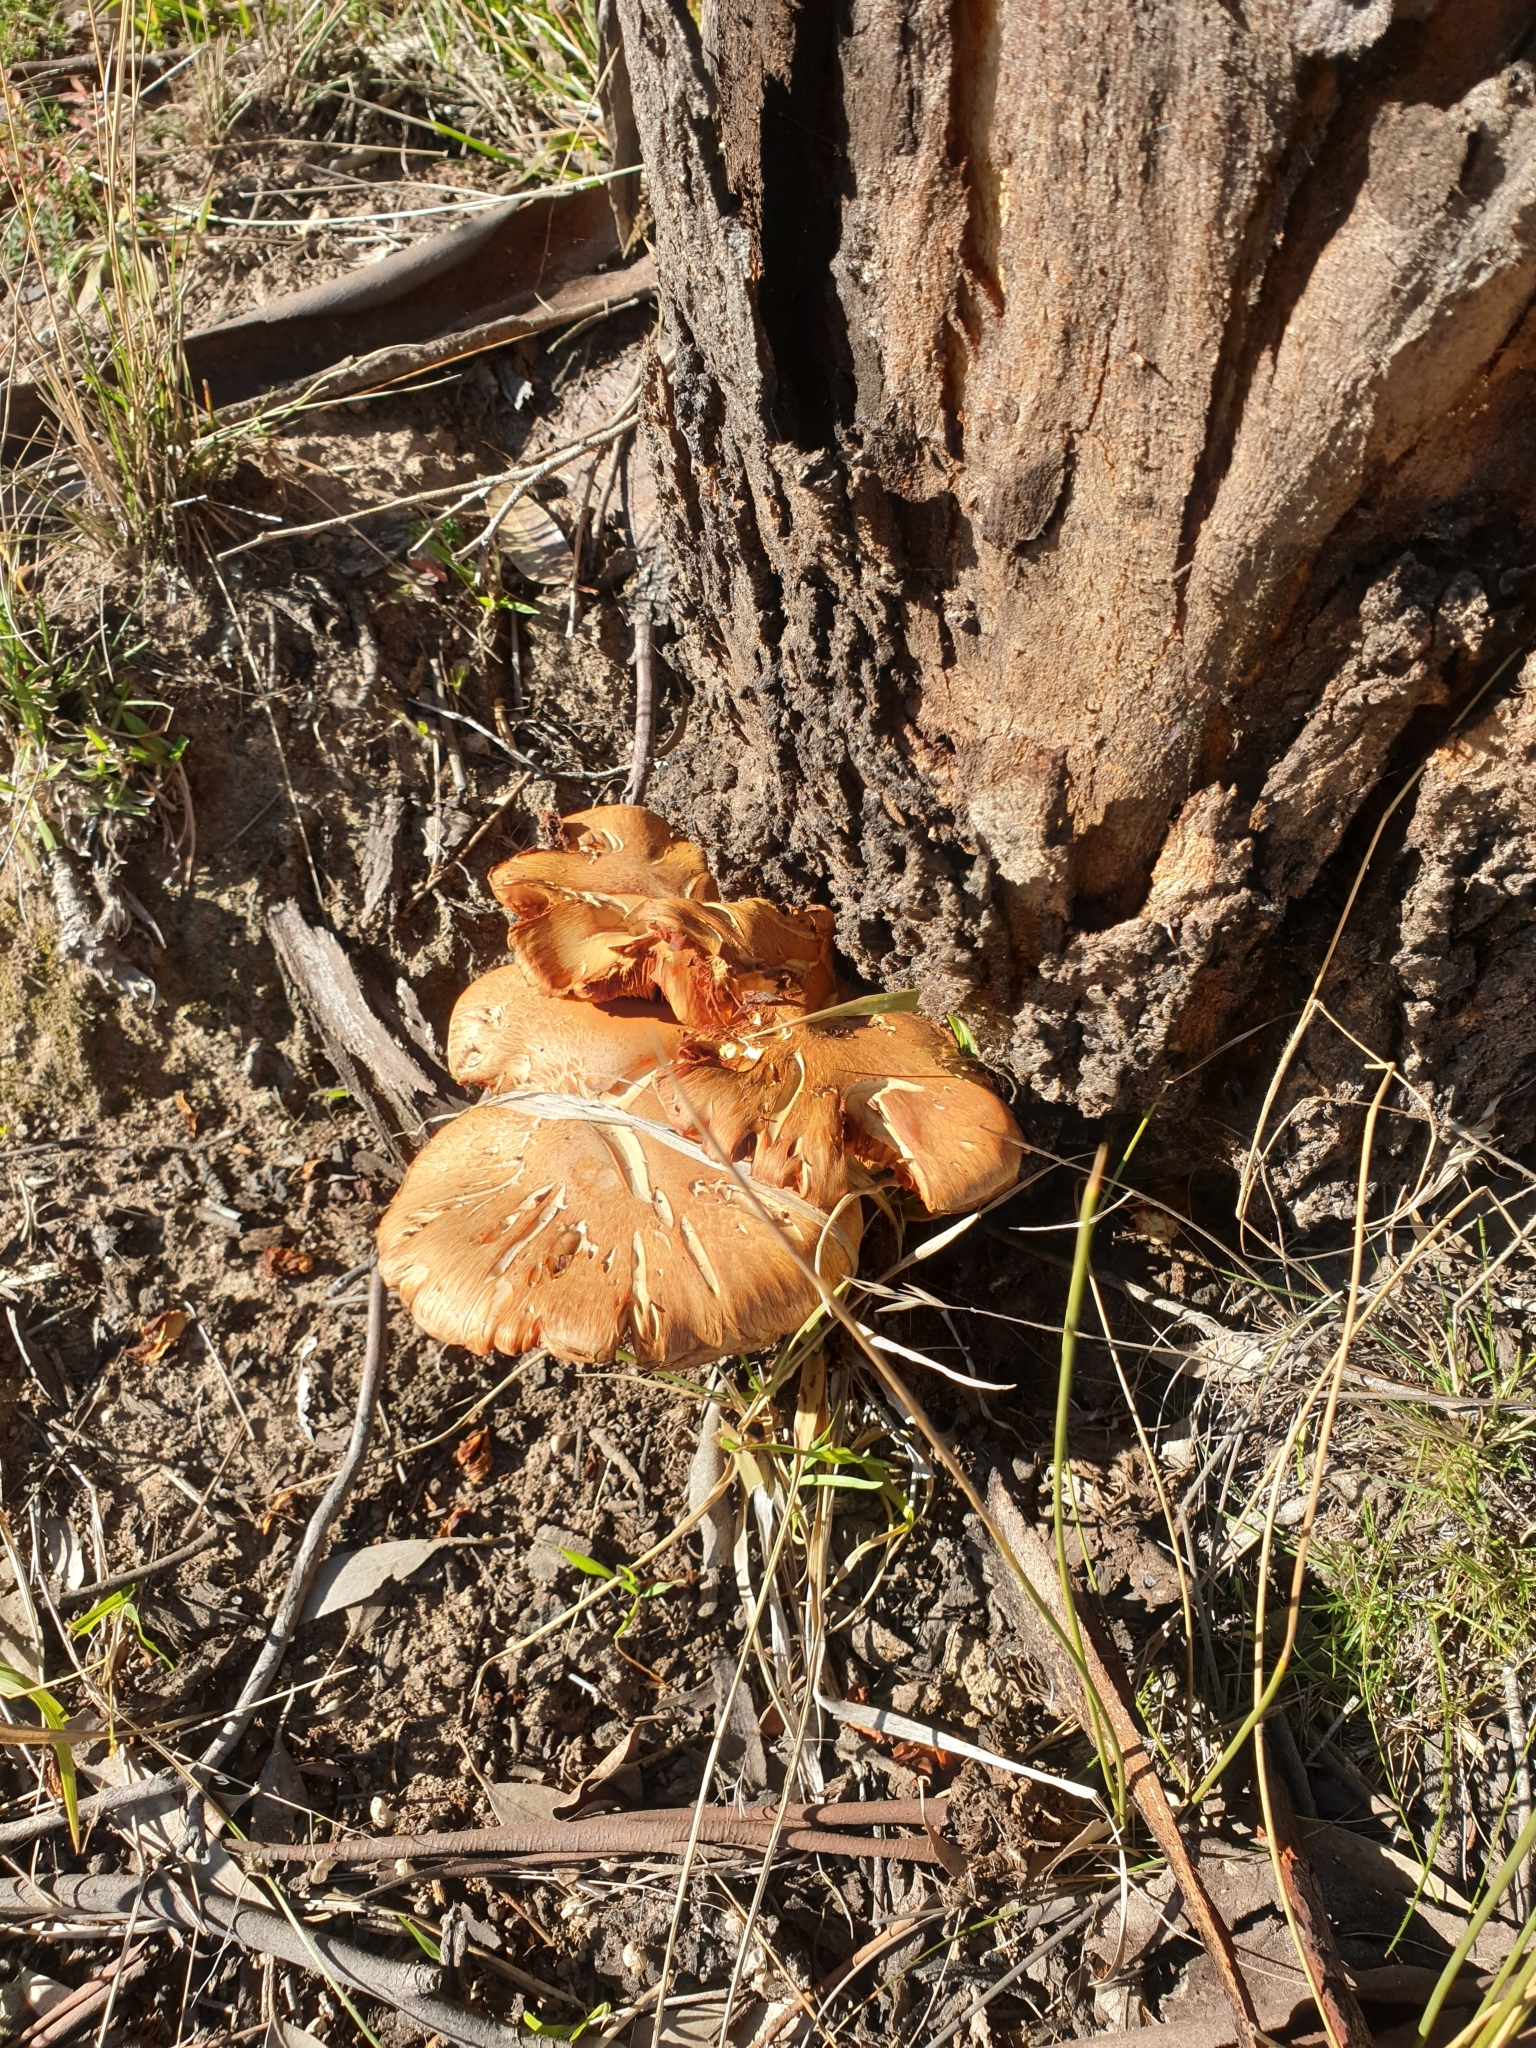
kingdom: Fungi
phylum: Basidiomycota
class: Agaricomycetes
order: Agaricales
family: Hymenogastraceae
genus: Gymnopilus
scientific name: Gymnopilus junonius
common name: Spectacular rustgill
